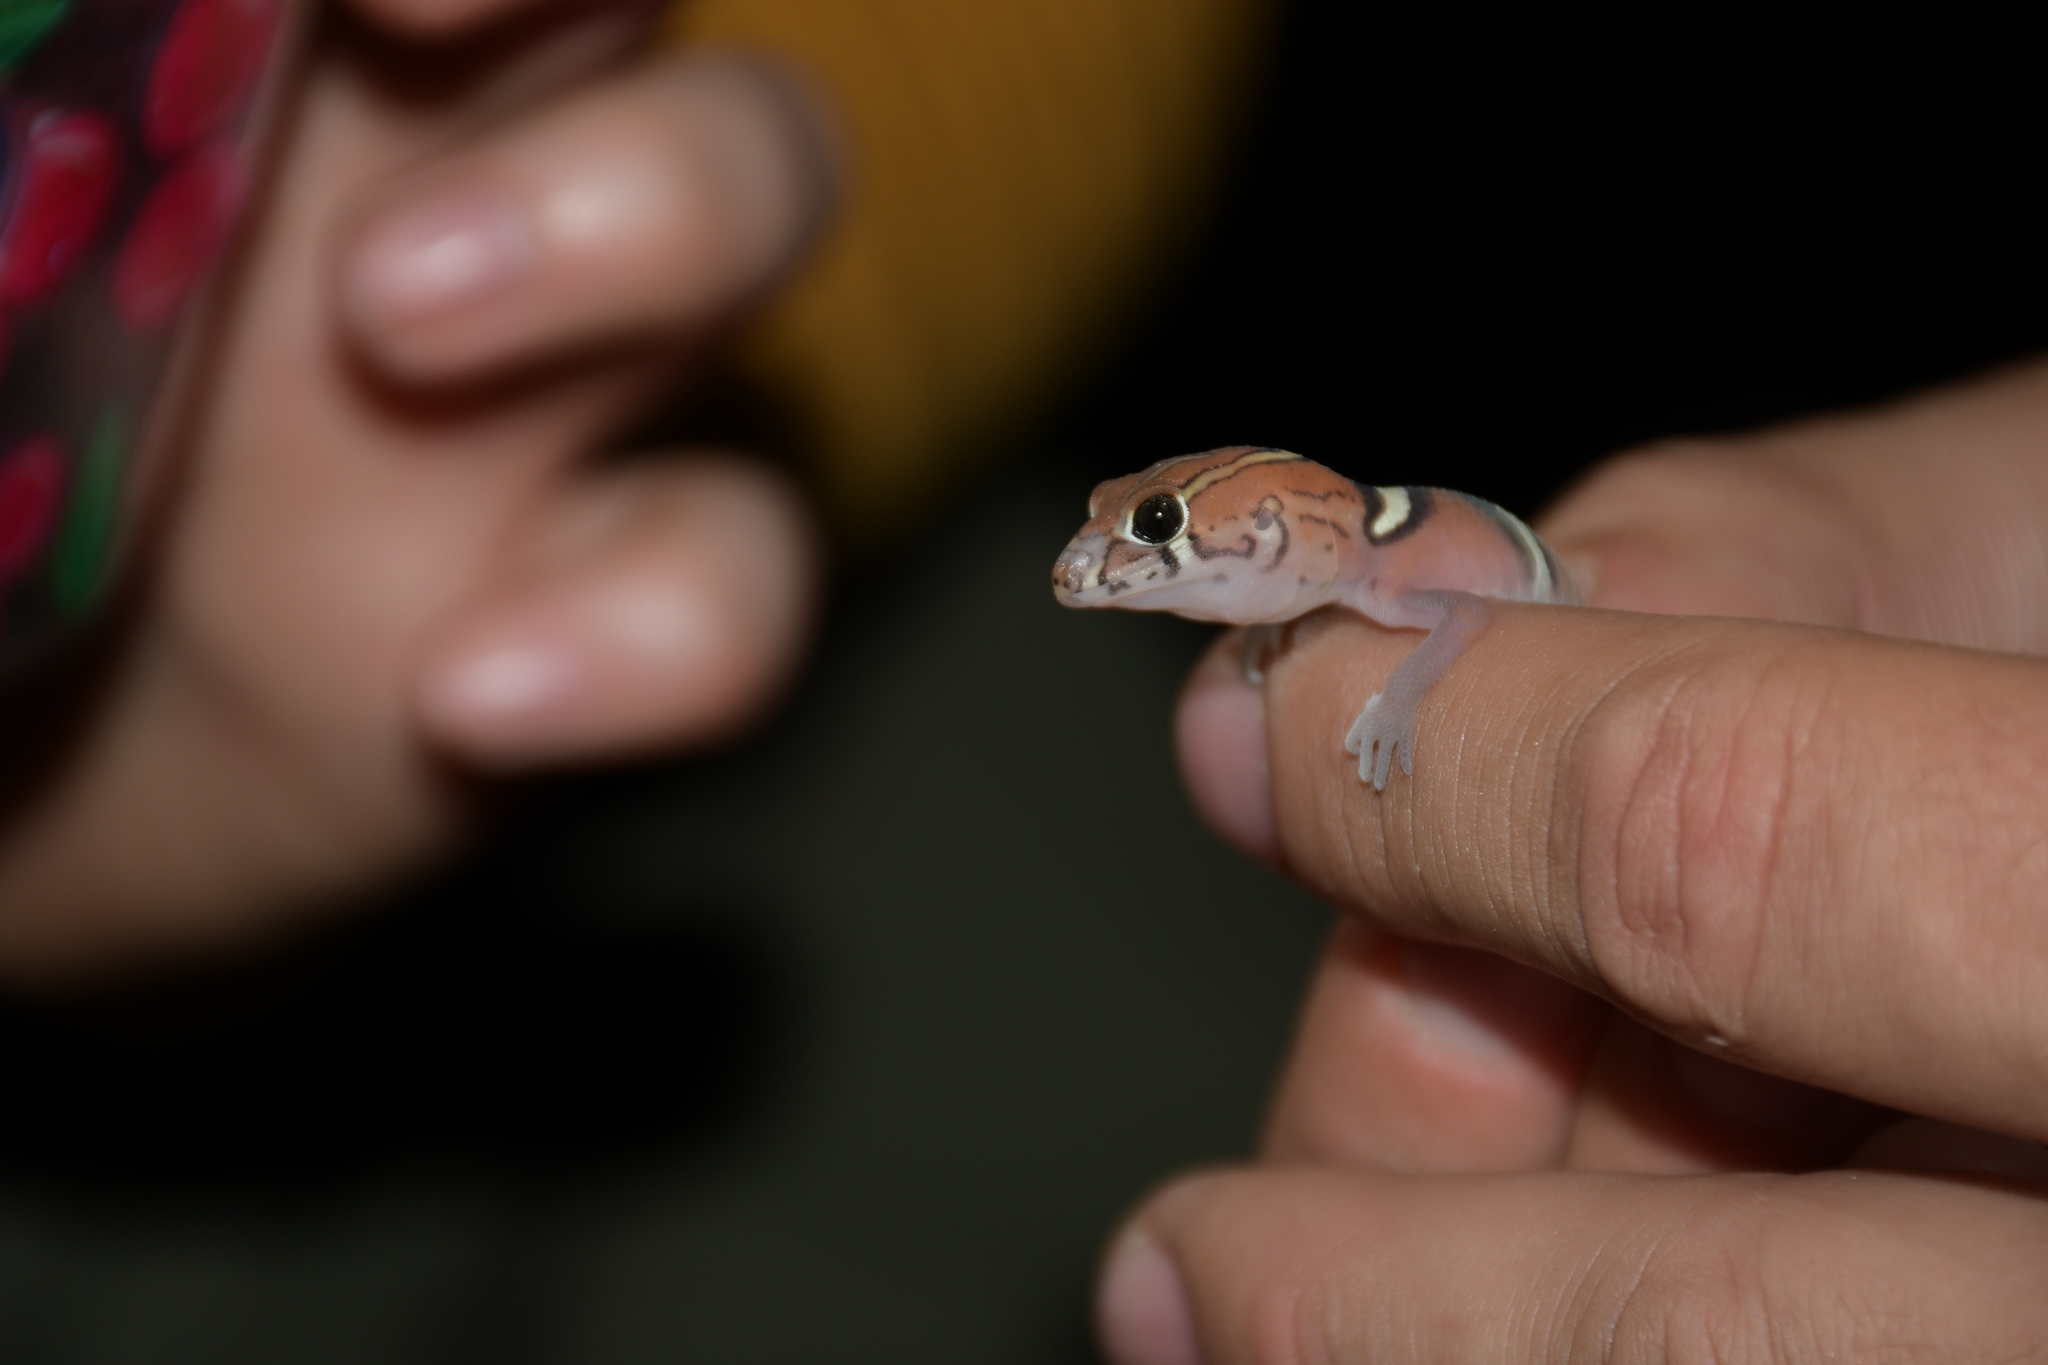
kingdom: Animalia
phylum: Chordata
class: Squamata
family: Eublepharidae
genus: Coleonyx
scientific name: Coleonyx
